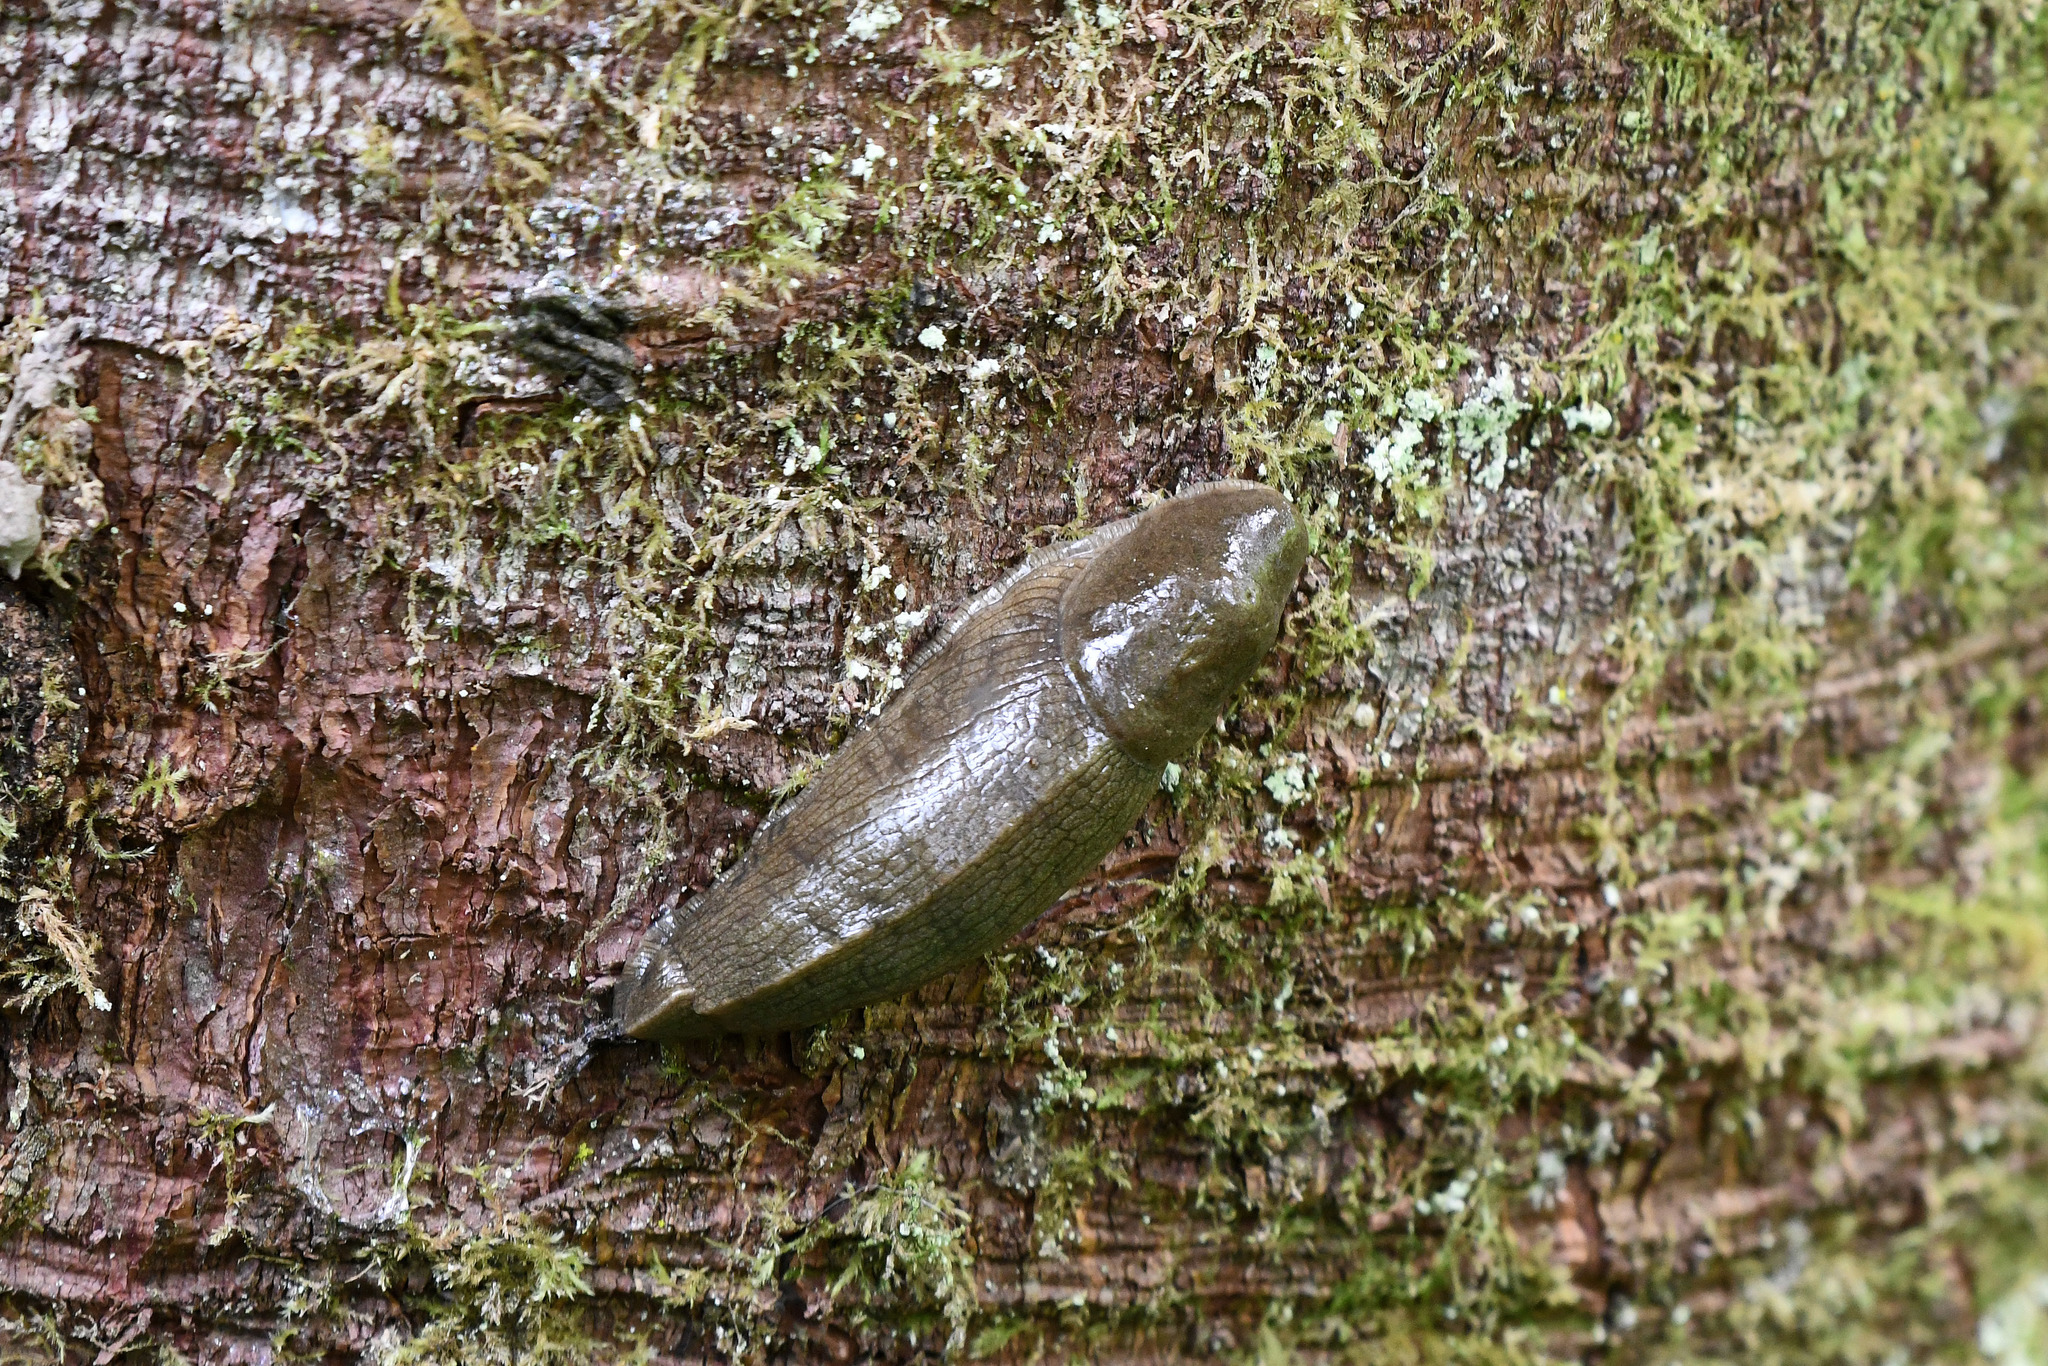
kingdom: Animalia
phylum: Mollusca
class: Gastropoda
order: Stylommatophora
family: Ariolimacidae
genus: Ariolimax
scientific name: Ariolimax columbianus
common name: Pacific banana slug
